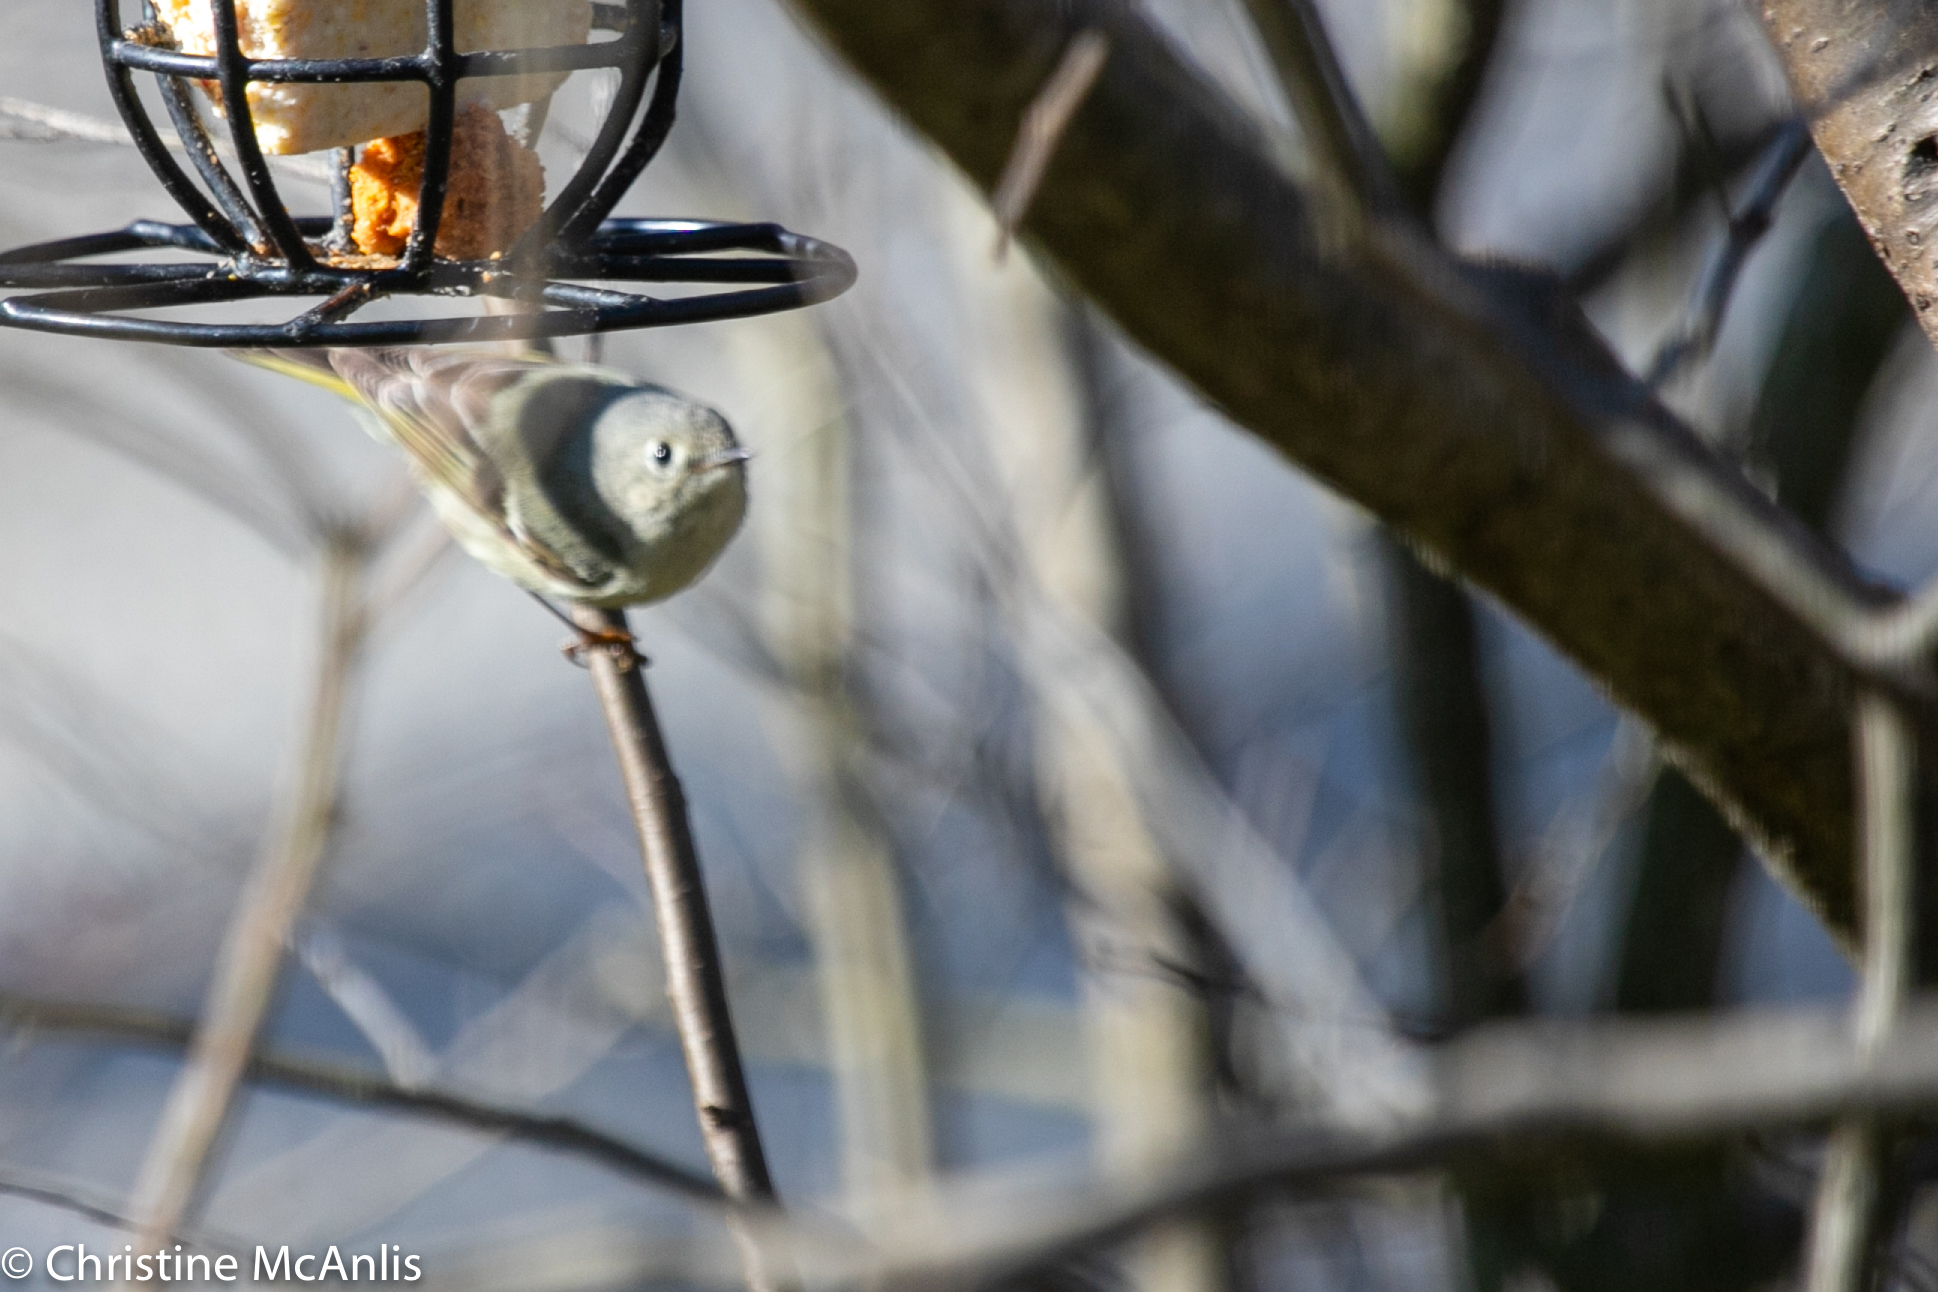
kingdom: Animalia
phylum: Chordata
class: Aves
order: Passeriformes
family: Regulidae
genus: Regulus
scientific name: Regulus calendula
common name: Ruby-crowned kinglet
